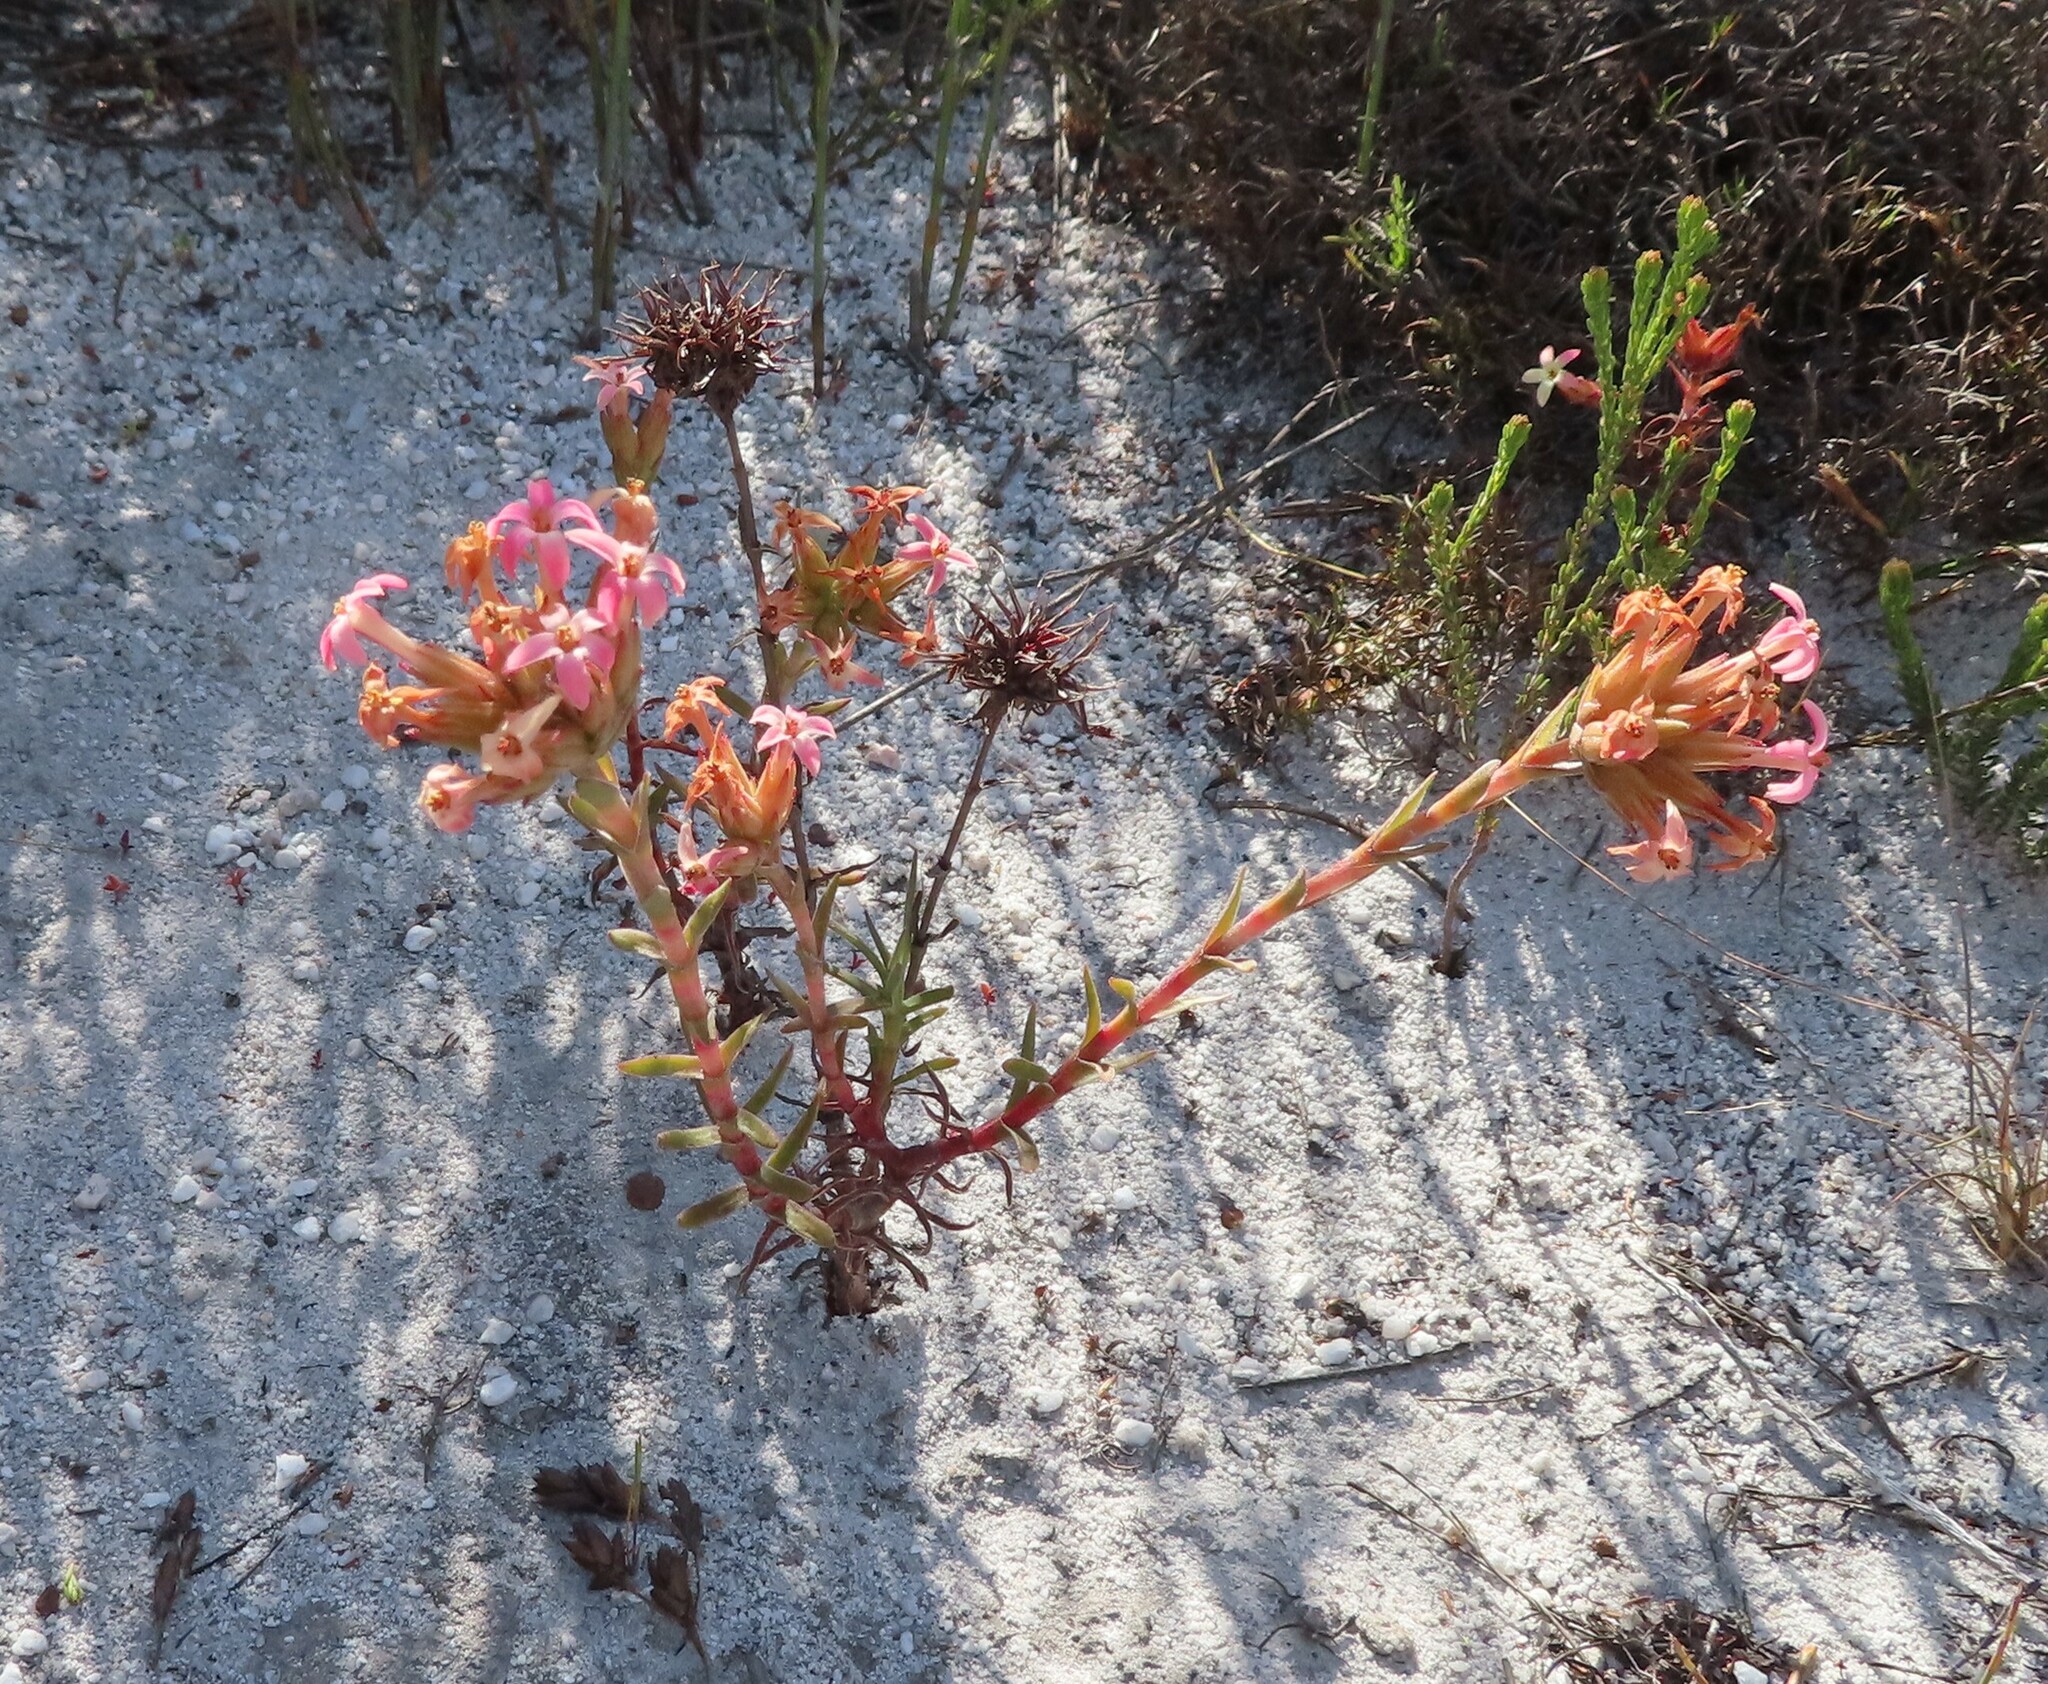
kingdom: Plantae
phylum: Tracheophyta
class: Magnoliopsida
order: Saxifragales
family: Crassulaceae
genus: Crassula
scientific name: Crassula fascicularis
